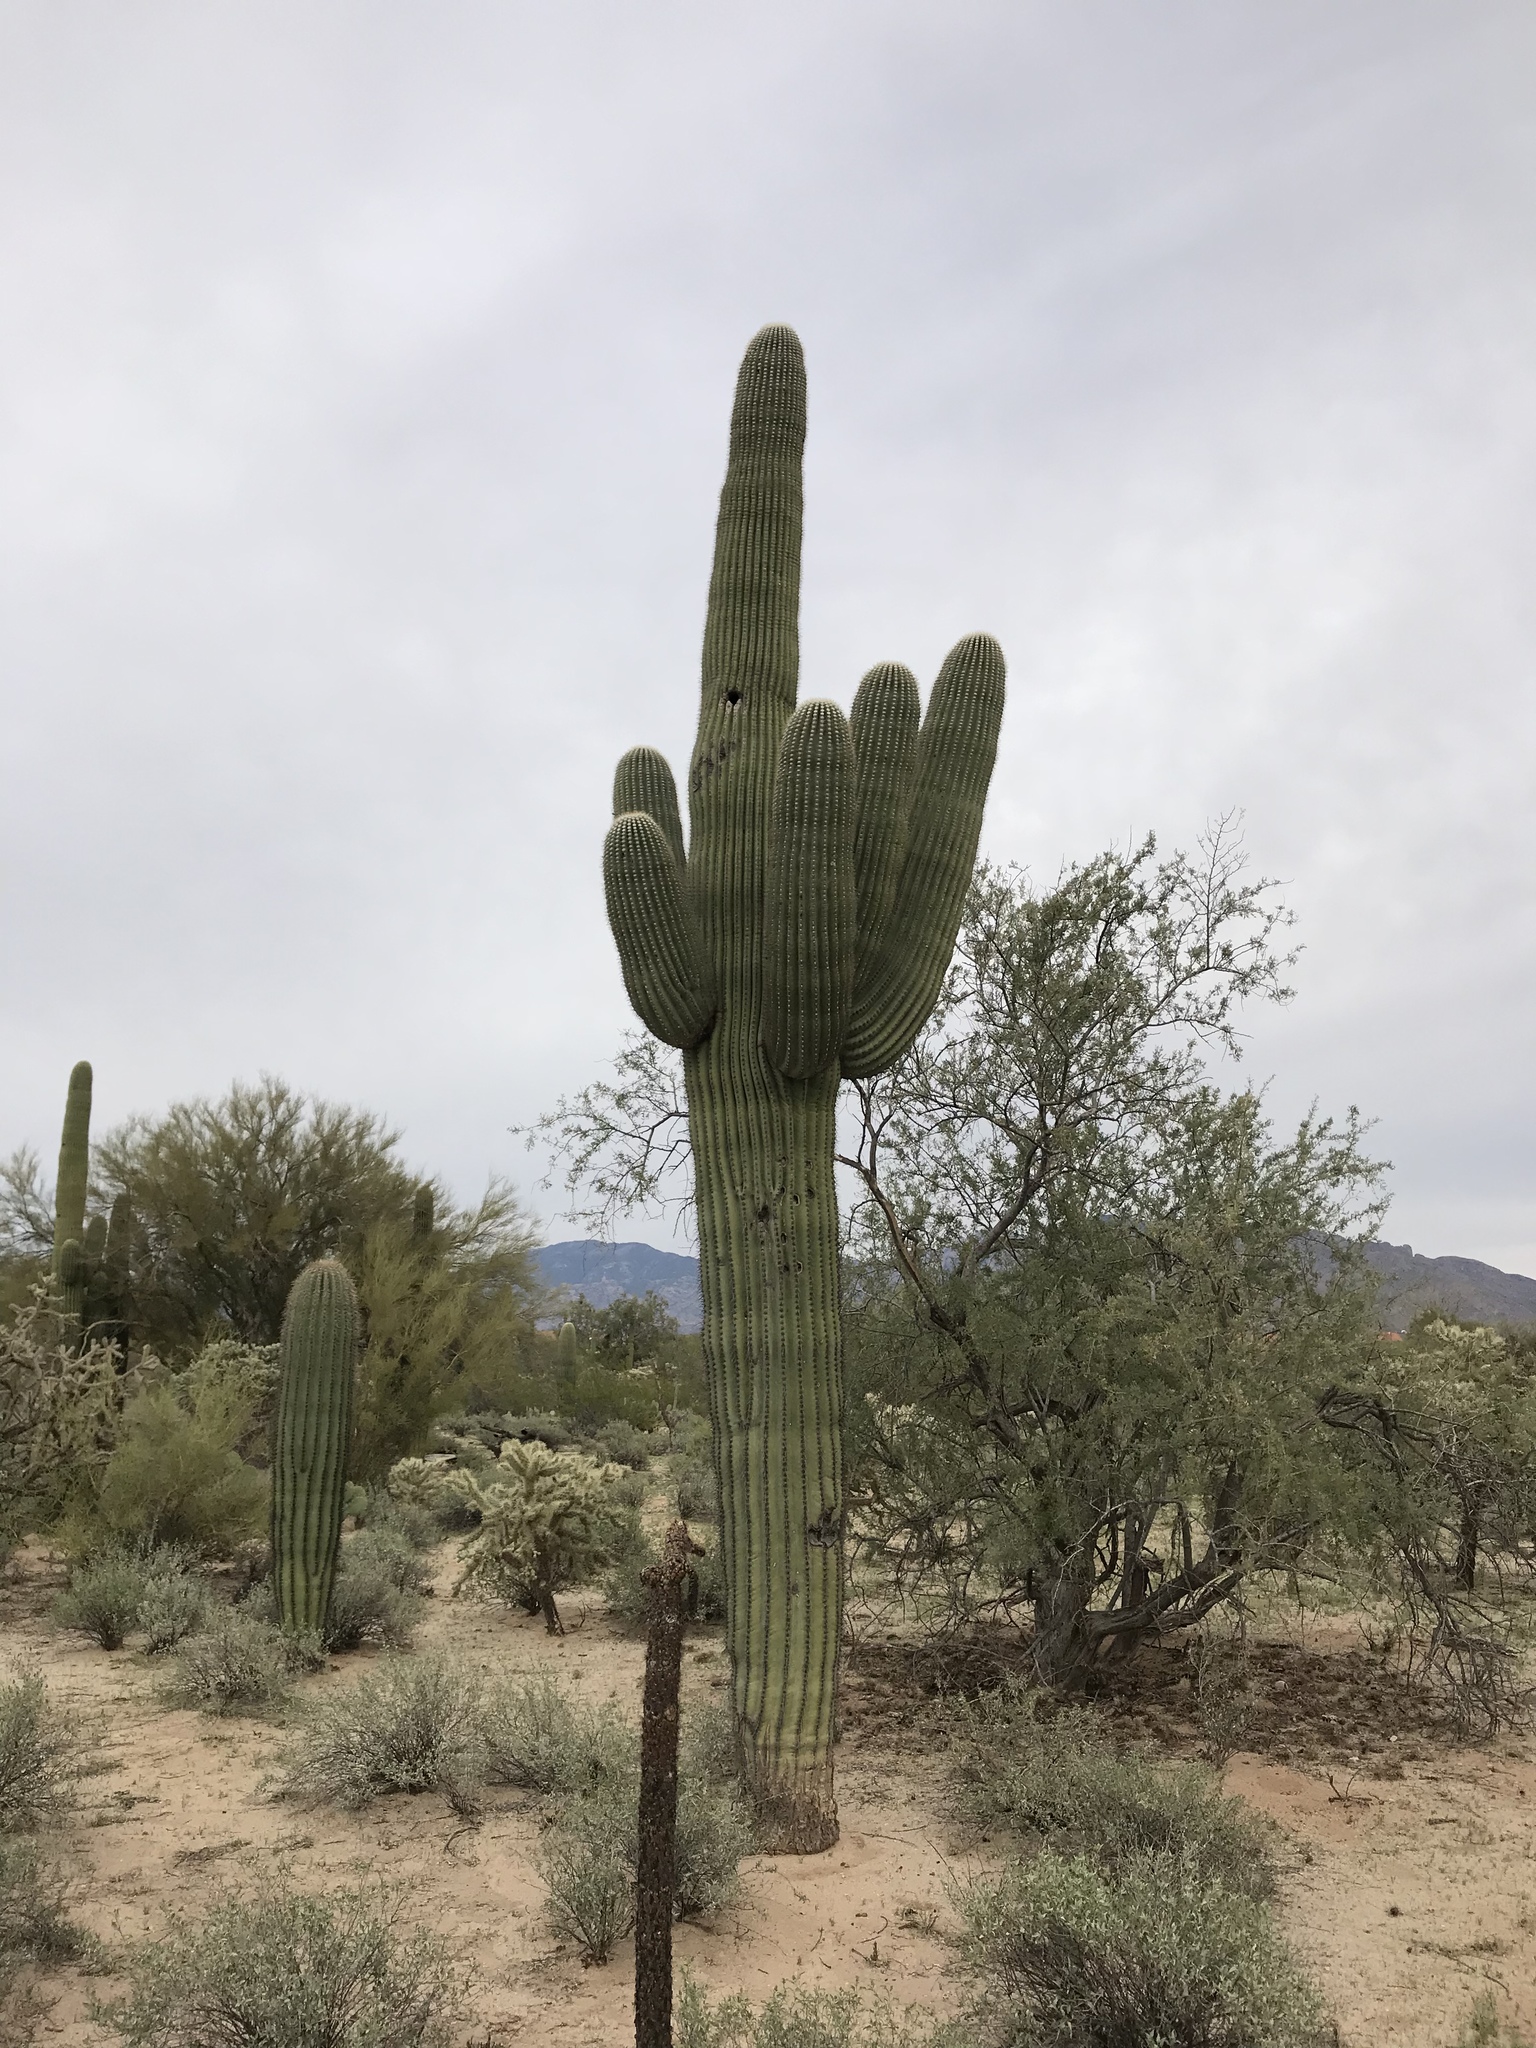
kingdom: Plantae
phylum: Tracheophyta
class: Magnoliopsida
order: Caryophyllales
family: Cactaceae
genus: Carnegiea
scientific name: Carnegiea gigantea
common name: Saguaro
